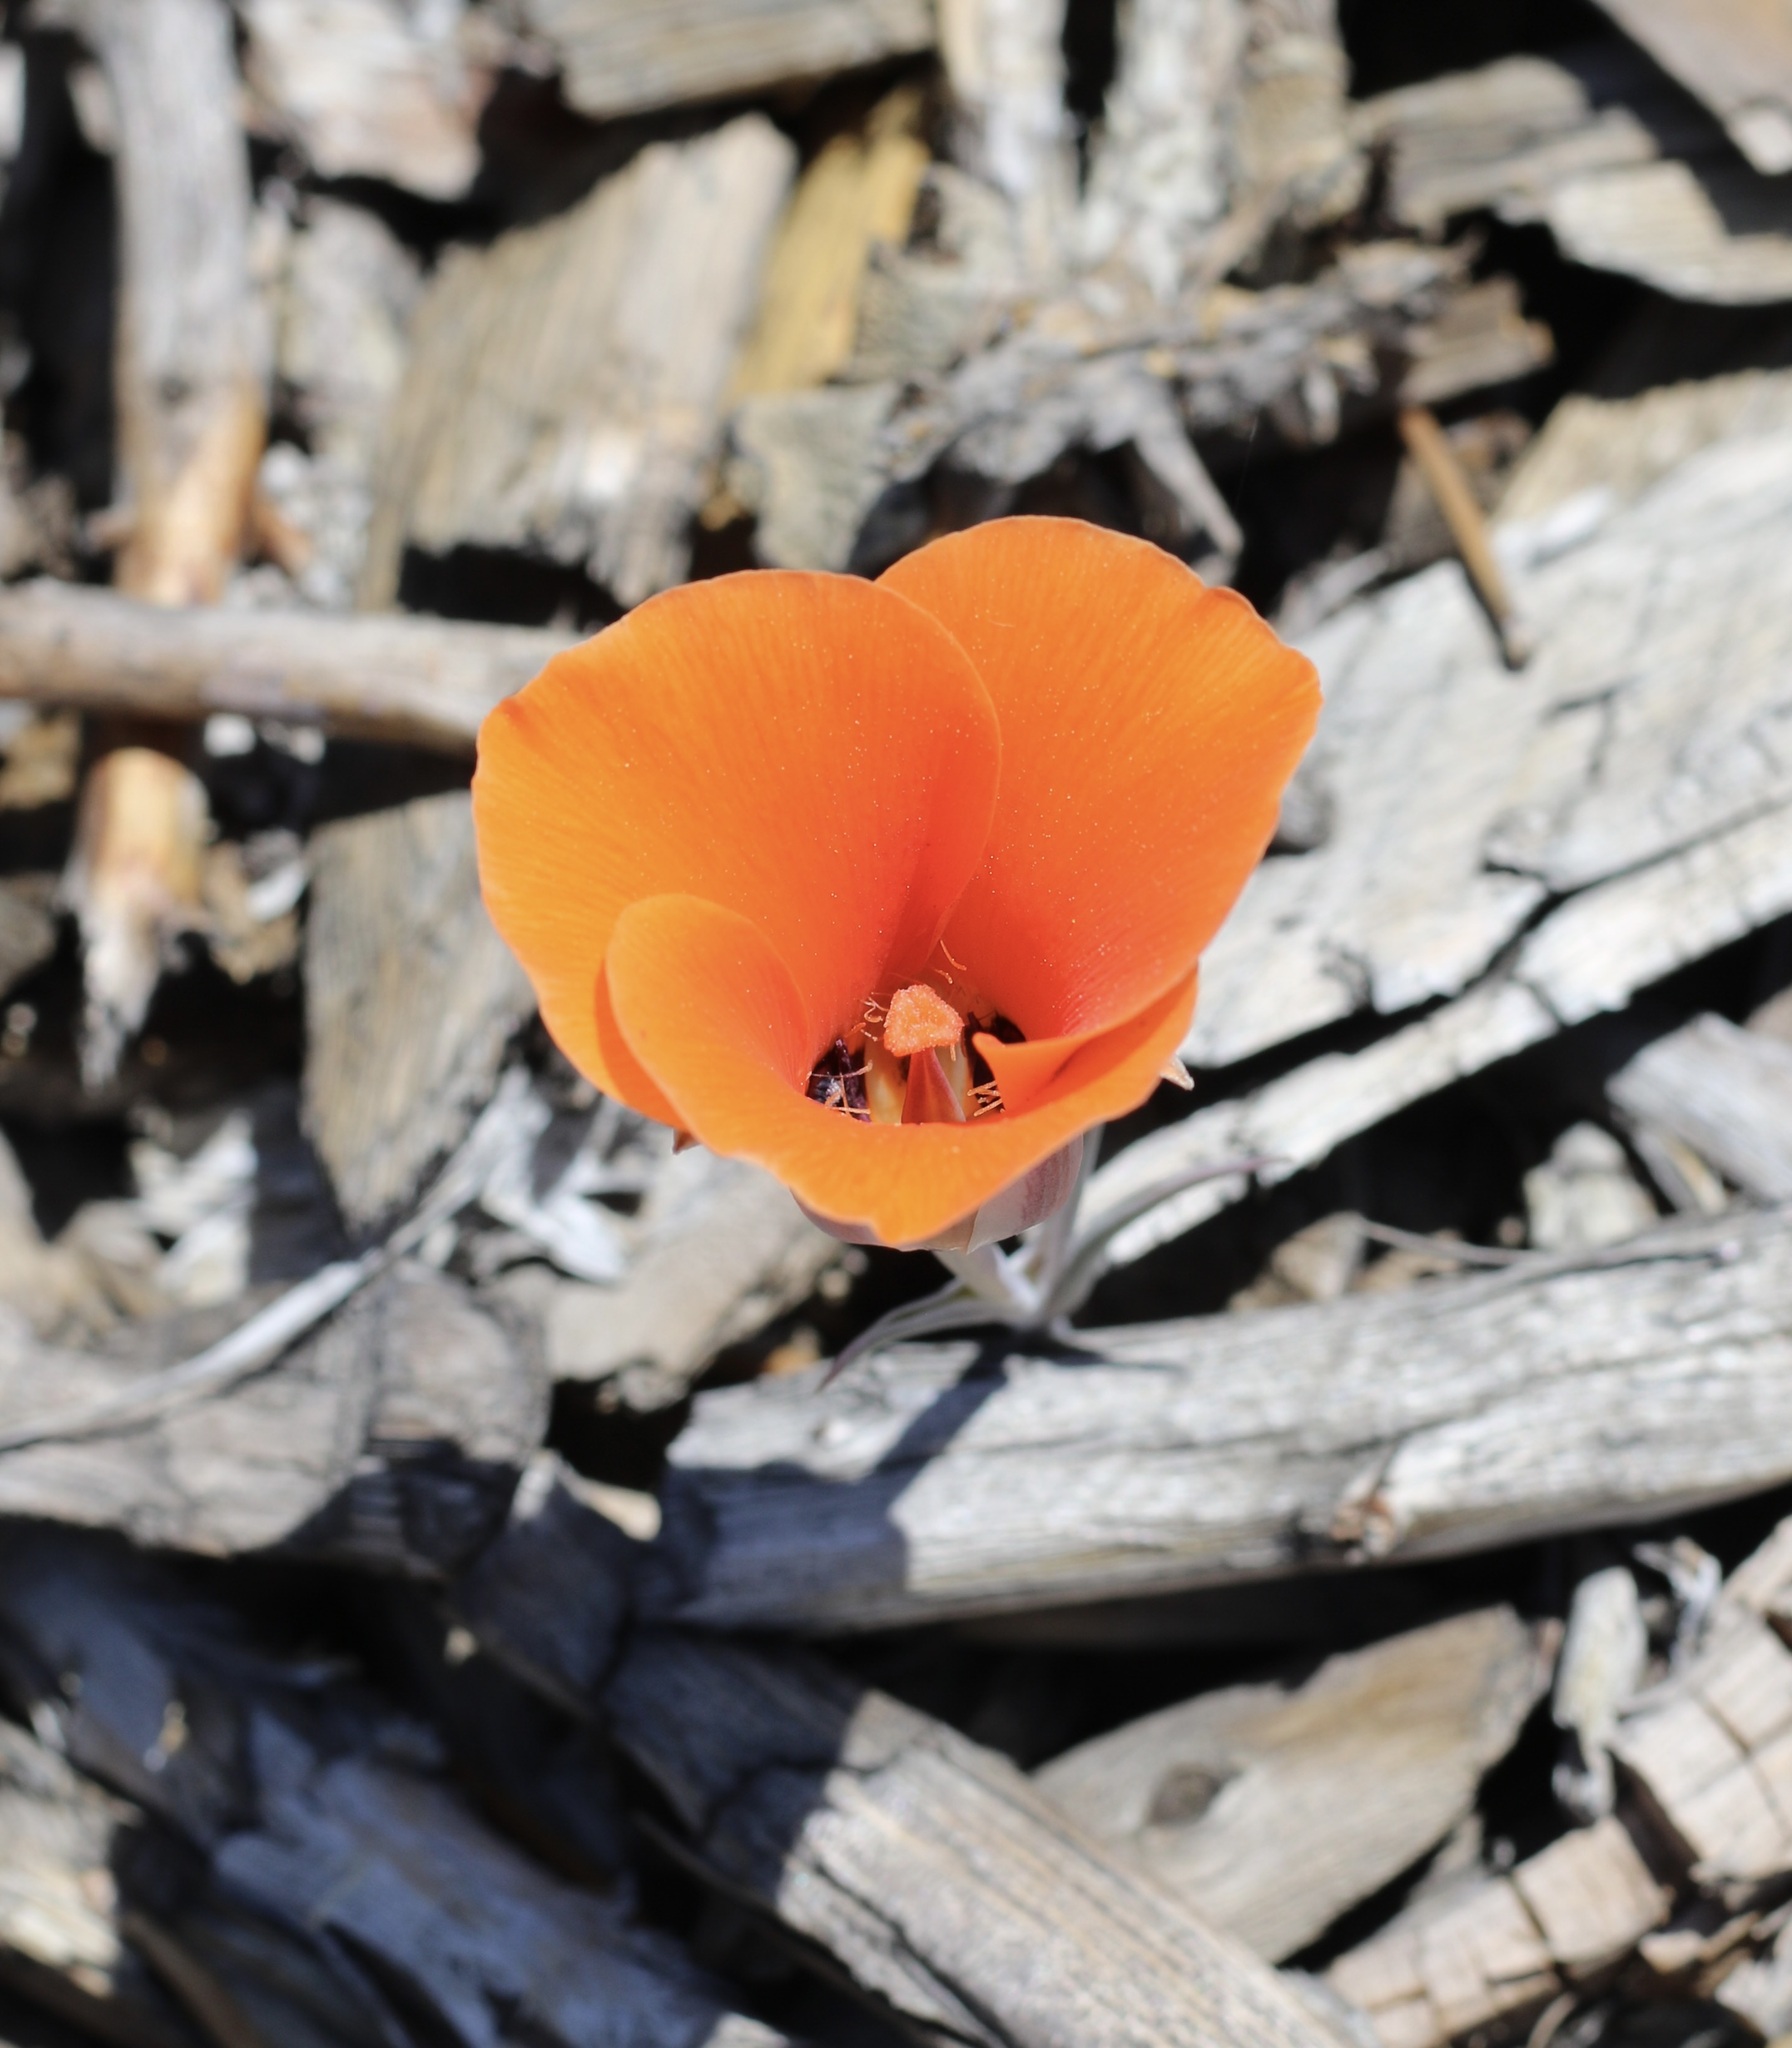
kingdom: Plantae
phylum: Tracheophyta
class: Liliopsida
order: Liliales
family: Liliaceae
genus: Calochortus
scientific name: Calochortus kennedyi
